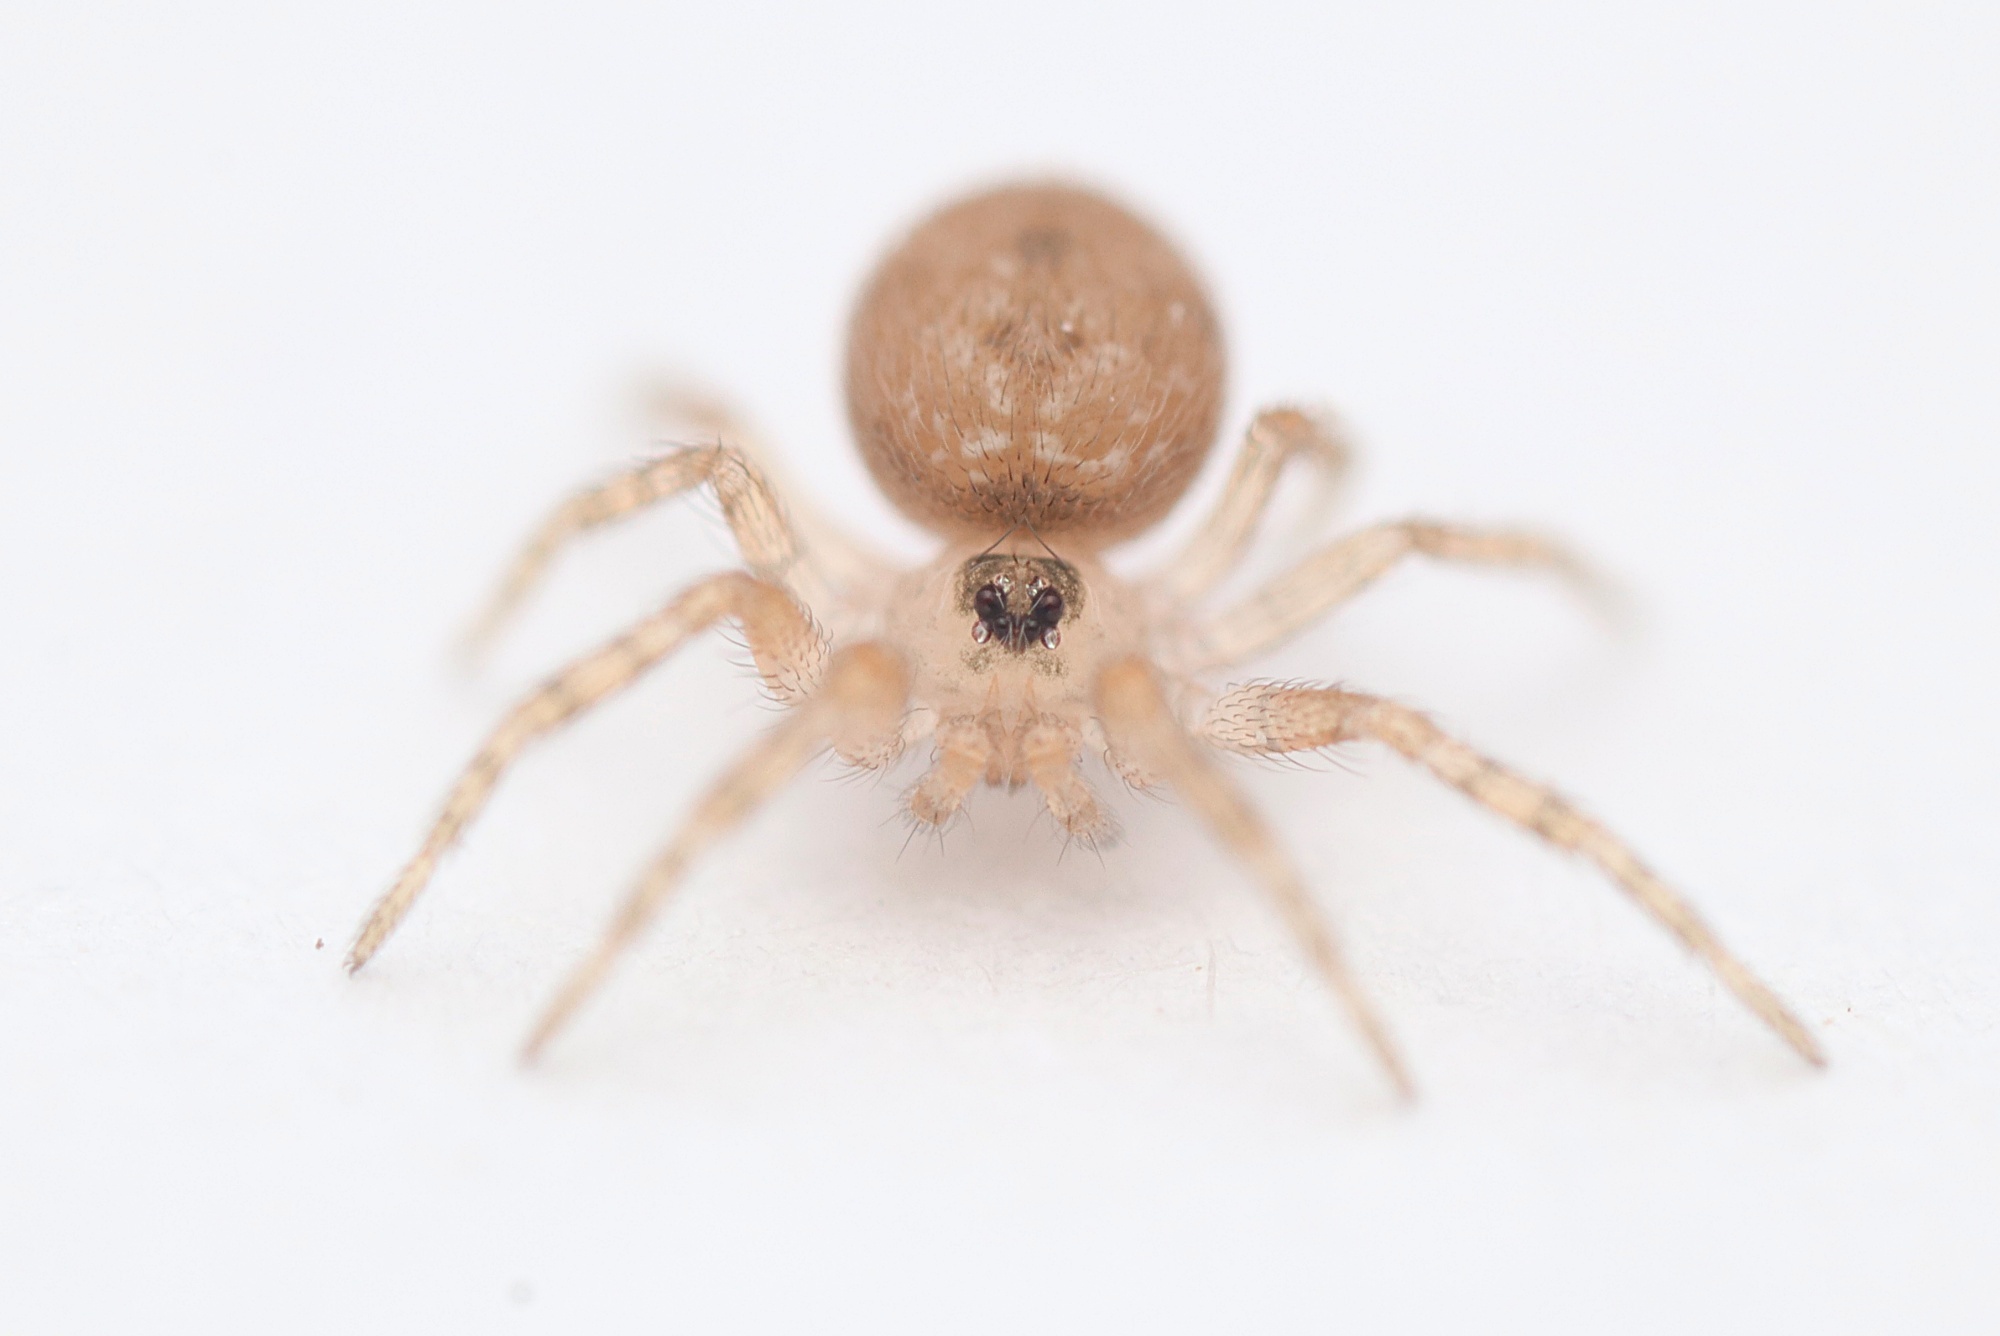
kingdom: Animalia
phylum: Arthropoda
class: Arachnida
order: Araneae
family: Oecobiidae
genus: Oecobius
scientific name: Oecobius navus
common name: Flatmesh weaver
